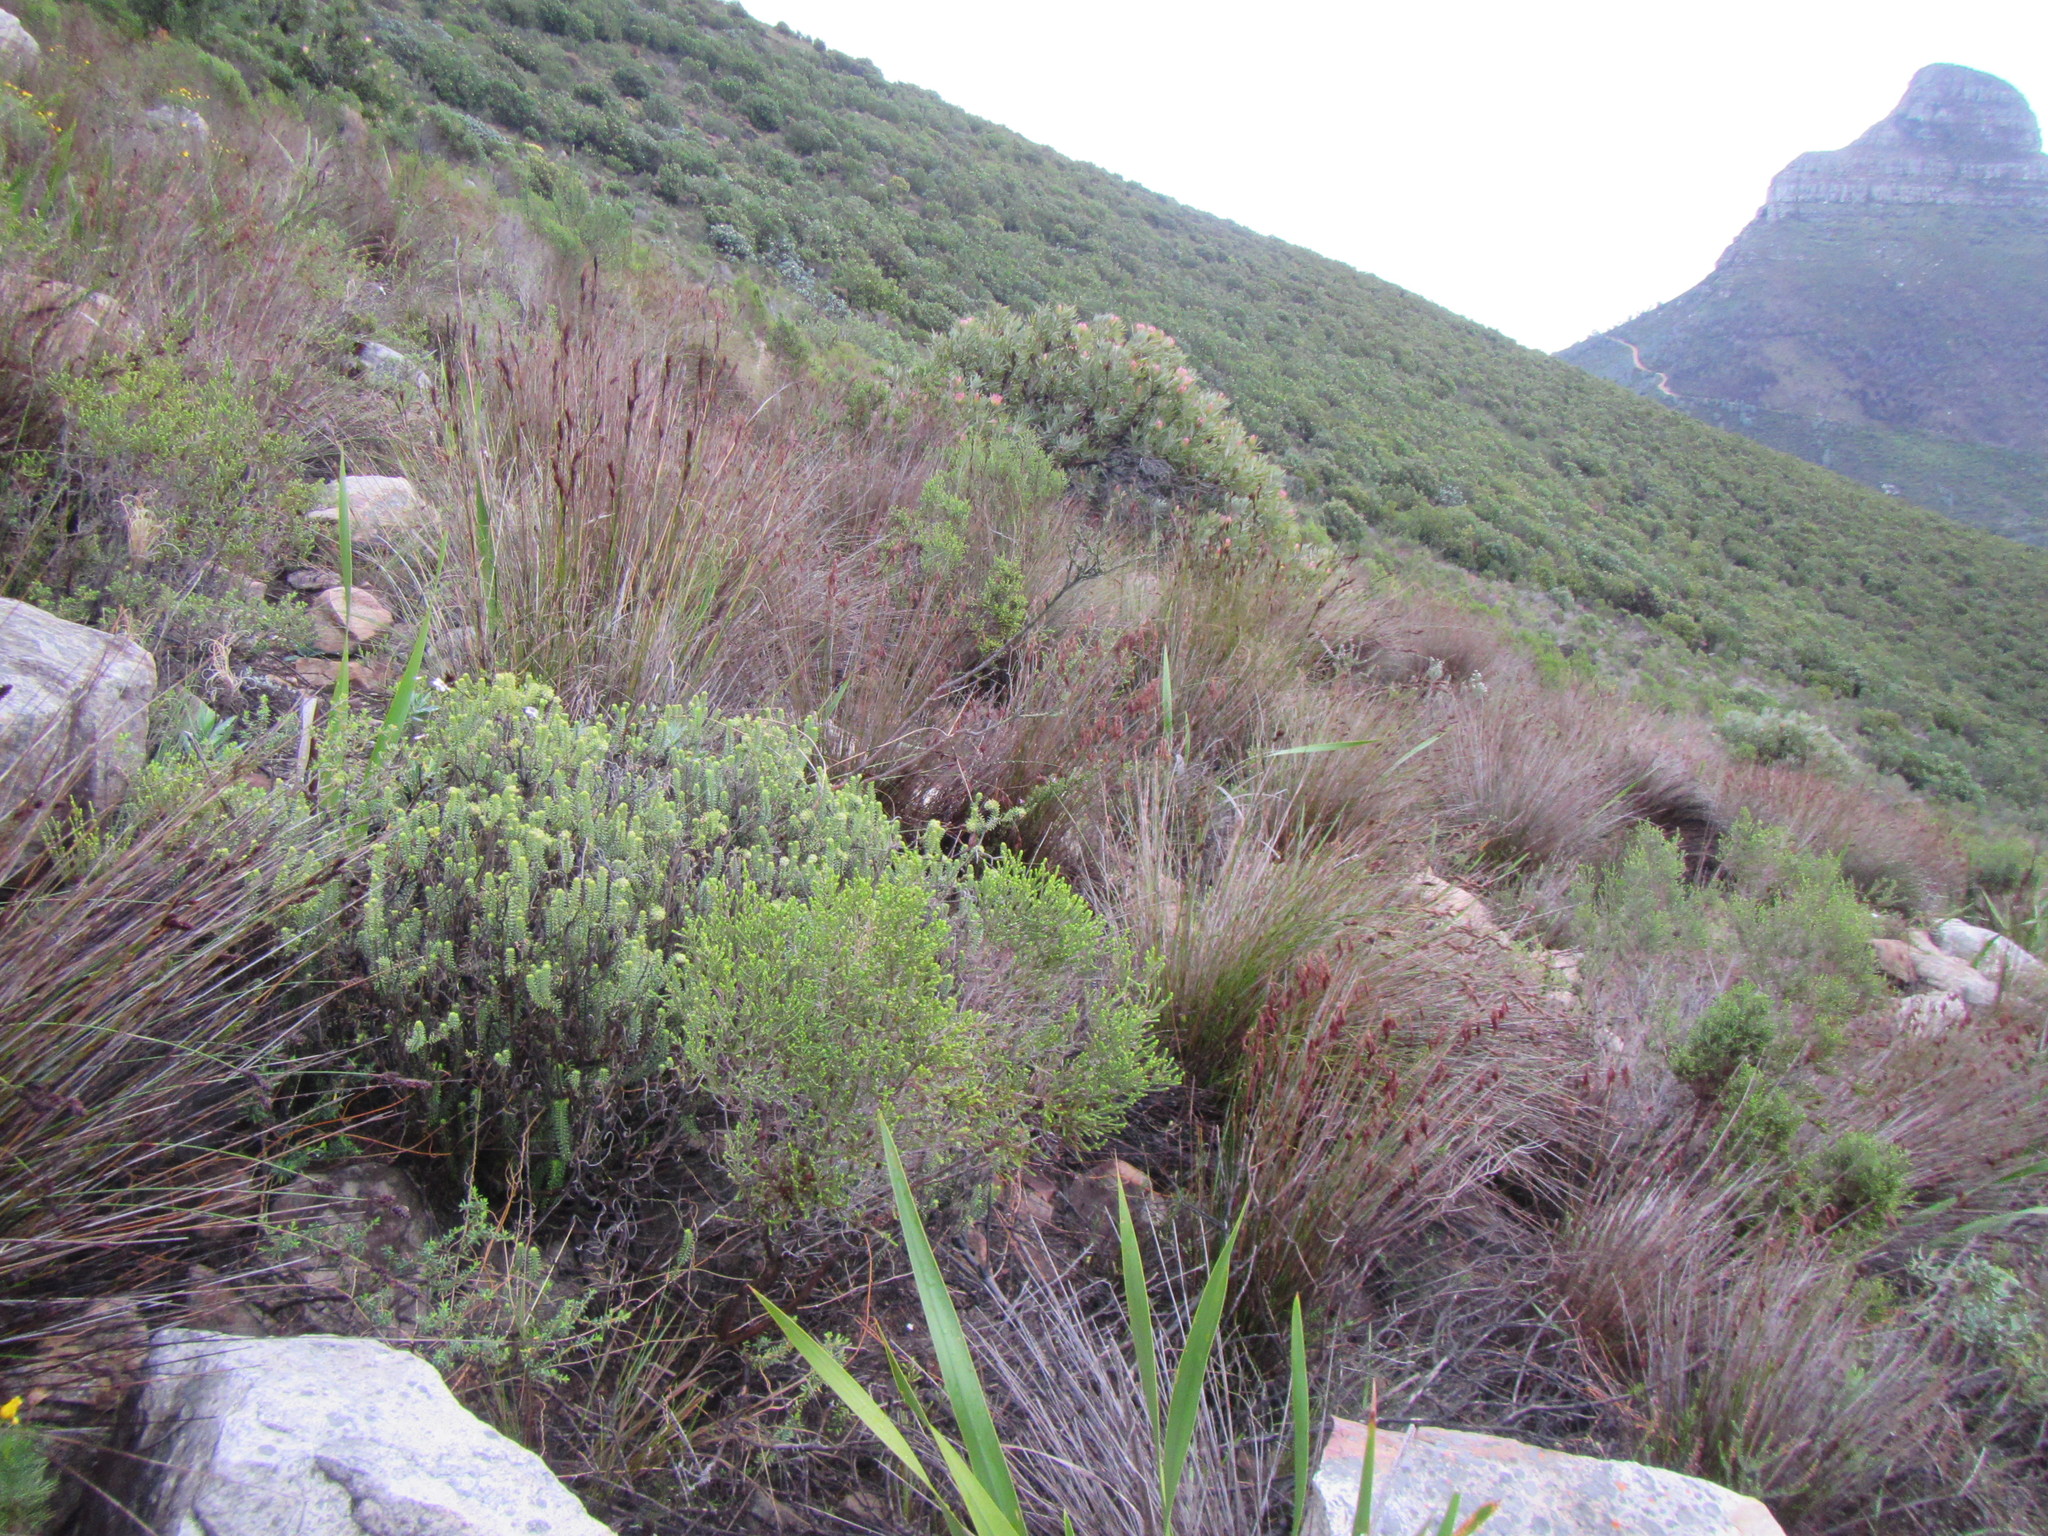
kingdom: Plantae
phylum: Tracheophyta
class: Magnoliopsida
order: Lamiales
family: Stilbaceae
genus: Campylostachys
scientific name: Campylostachys cernua
